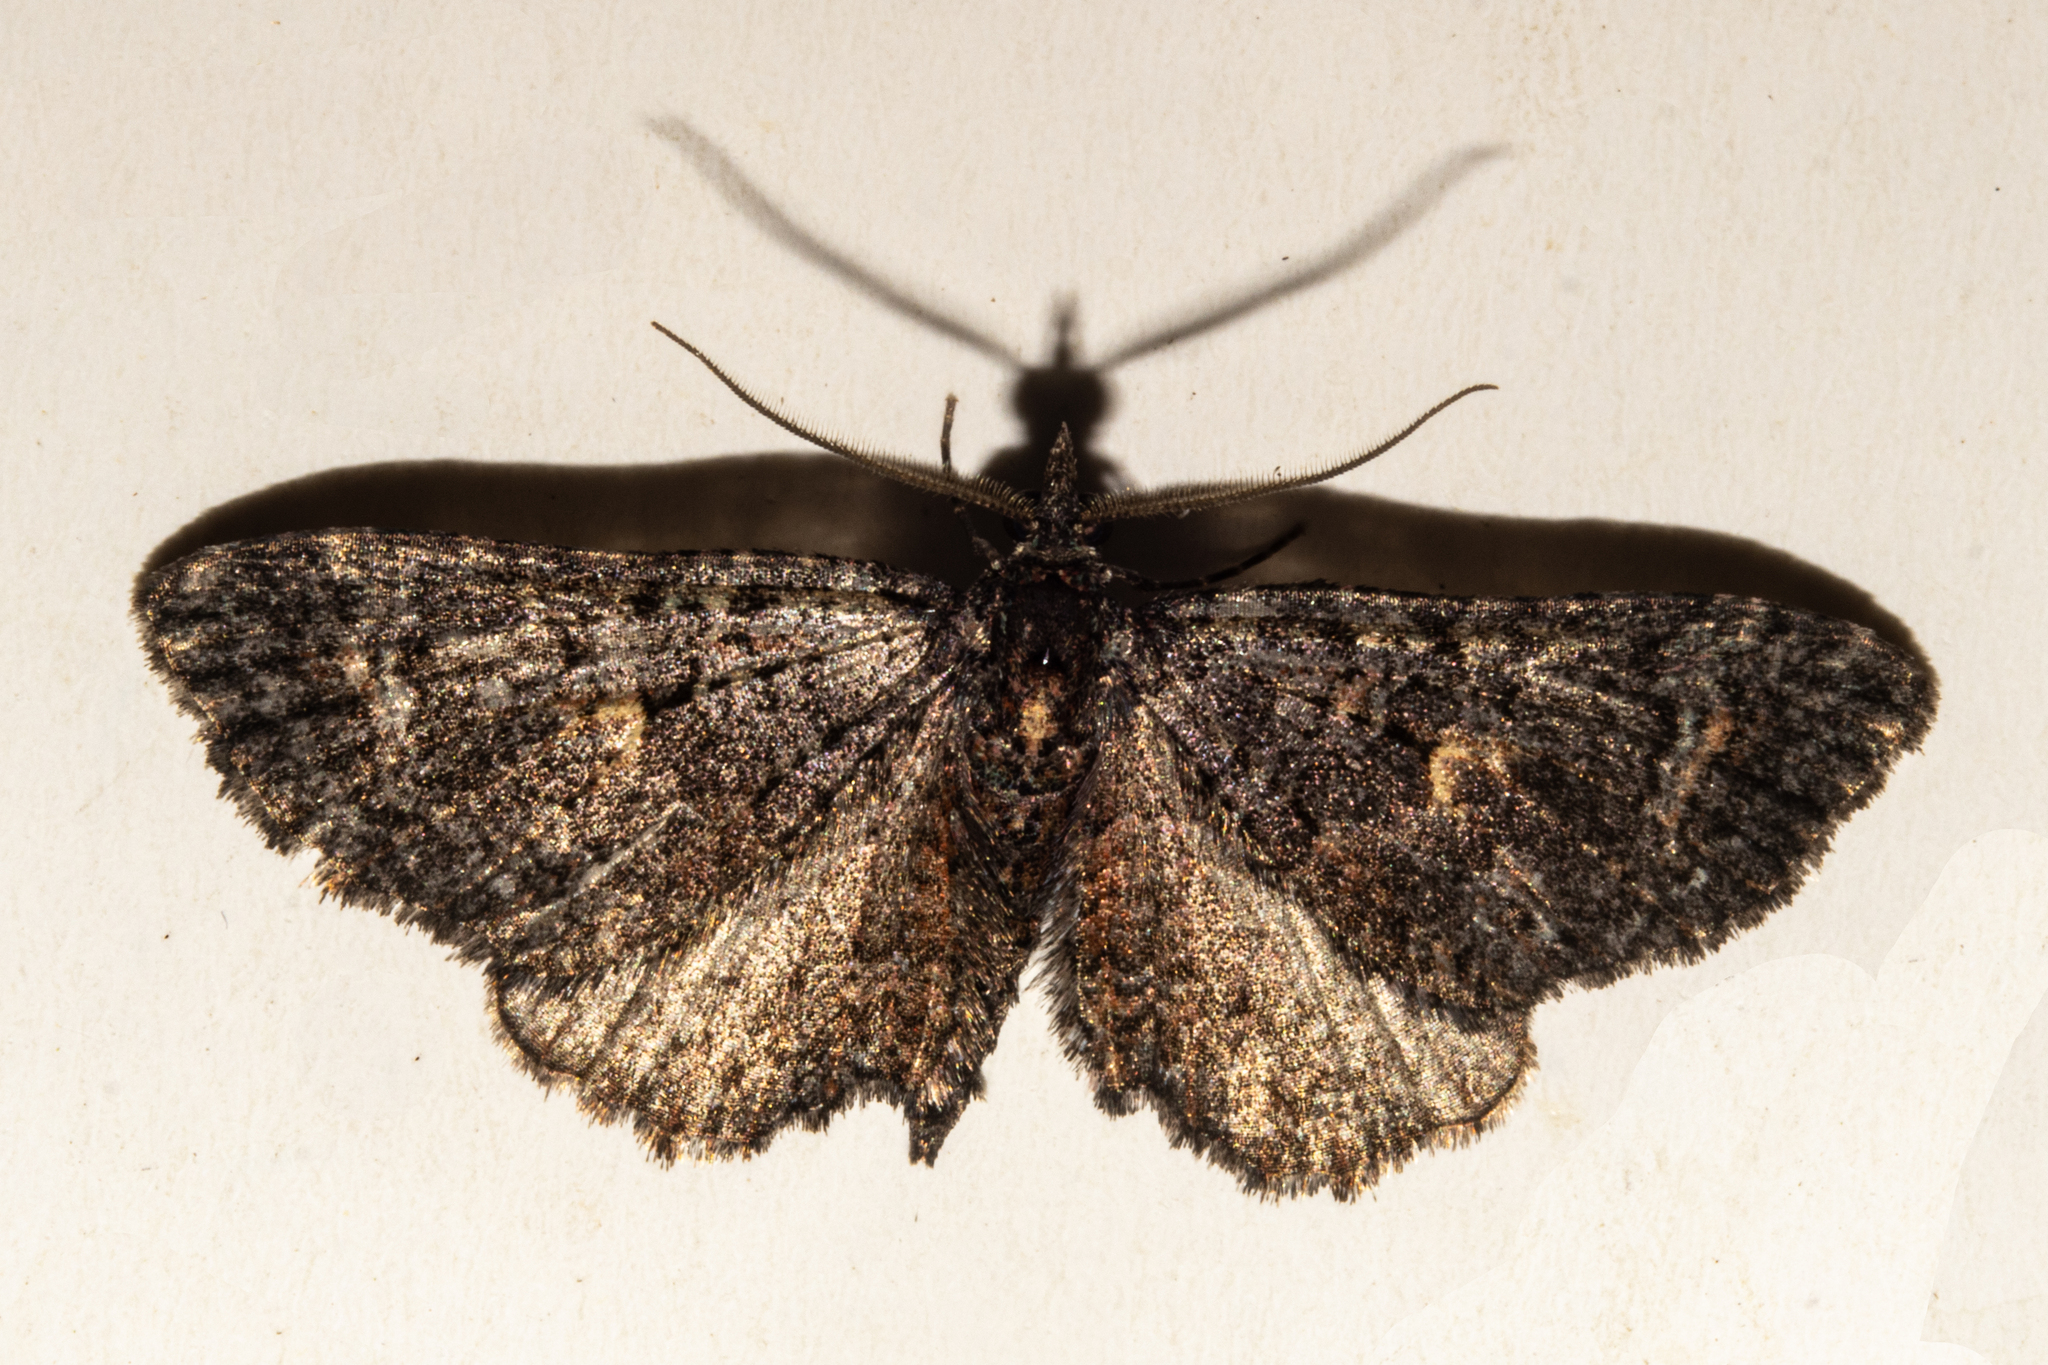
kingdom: Animalia
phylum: Arthropoda
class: Insecta
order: Lepidoptera
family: Geometridae
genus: Pasiphila
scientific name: Pasiphila rubella
